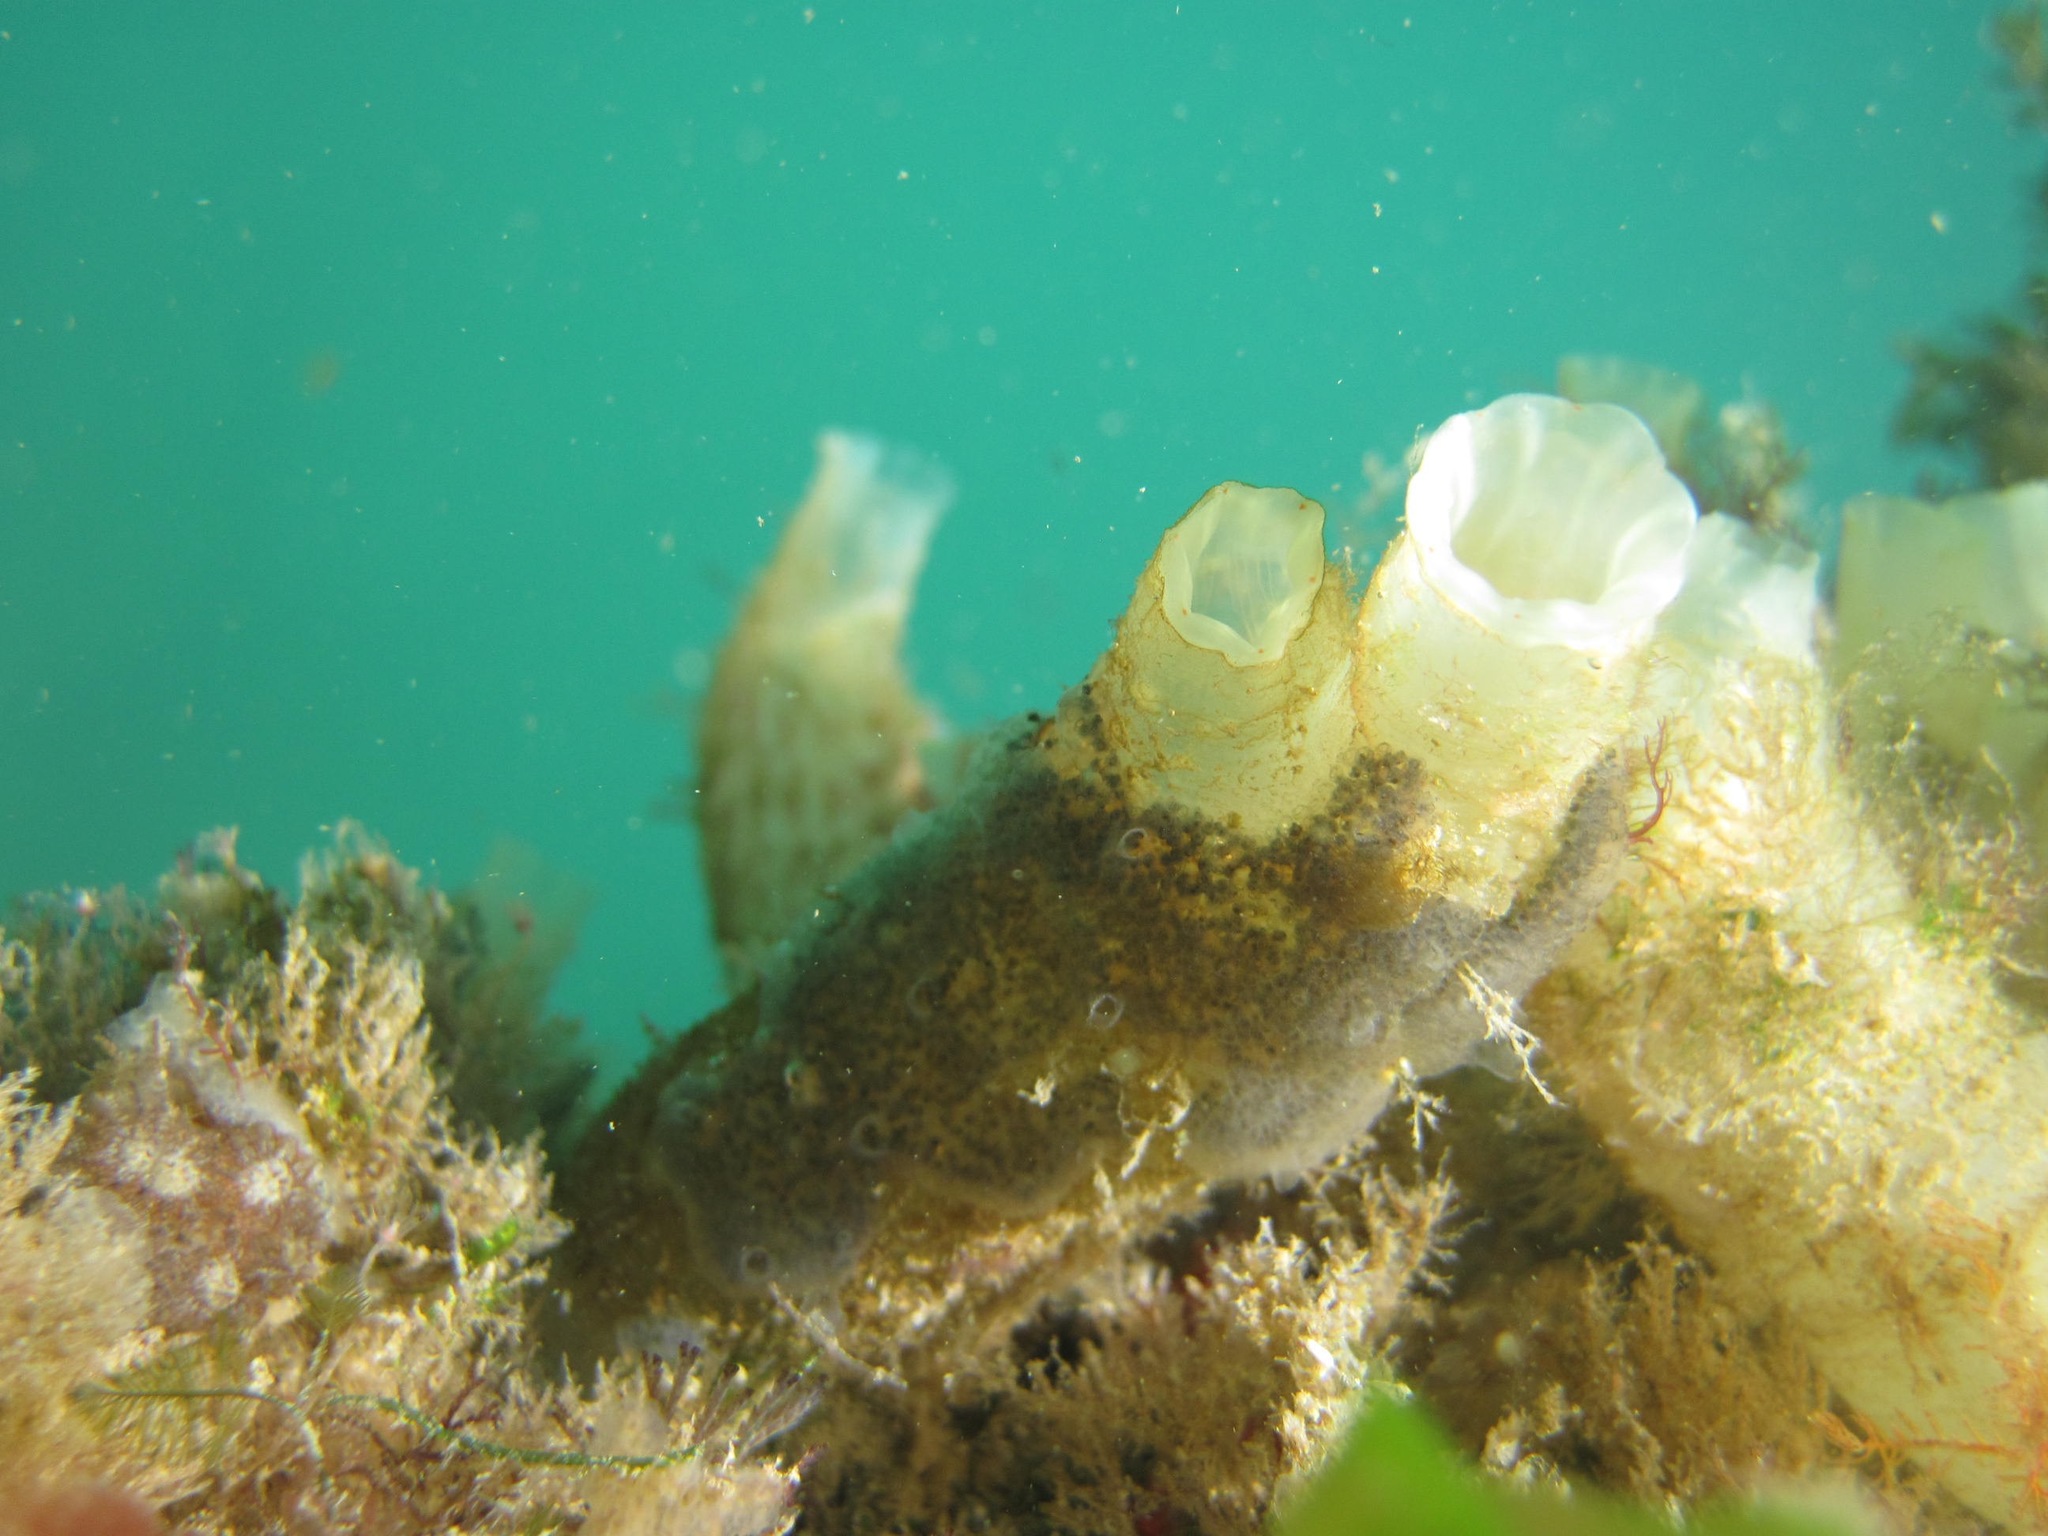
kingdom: Animalia
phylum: Chordata
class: Ascidiacea
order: Phlebobranchia
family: Cionidae
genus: Ciona
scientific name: Ciona robusta
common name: Tunicate
